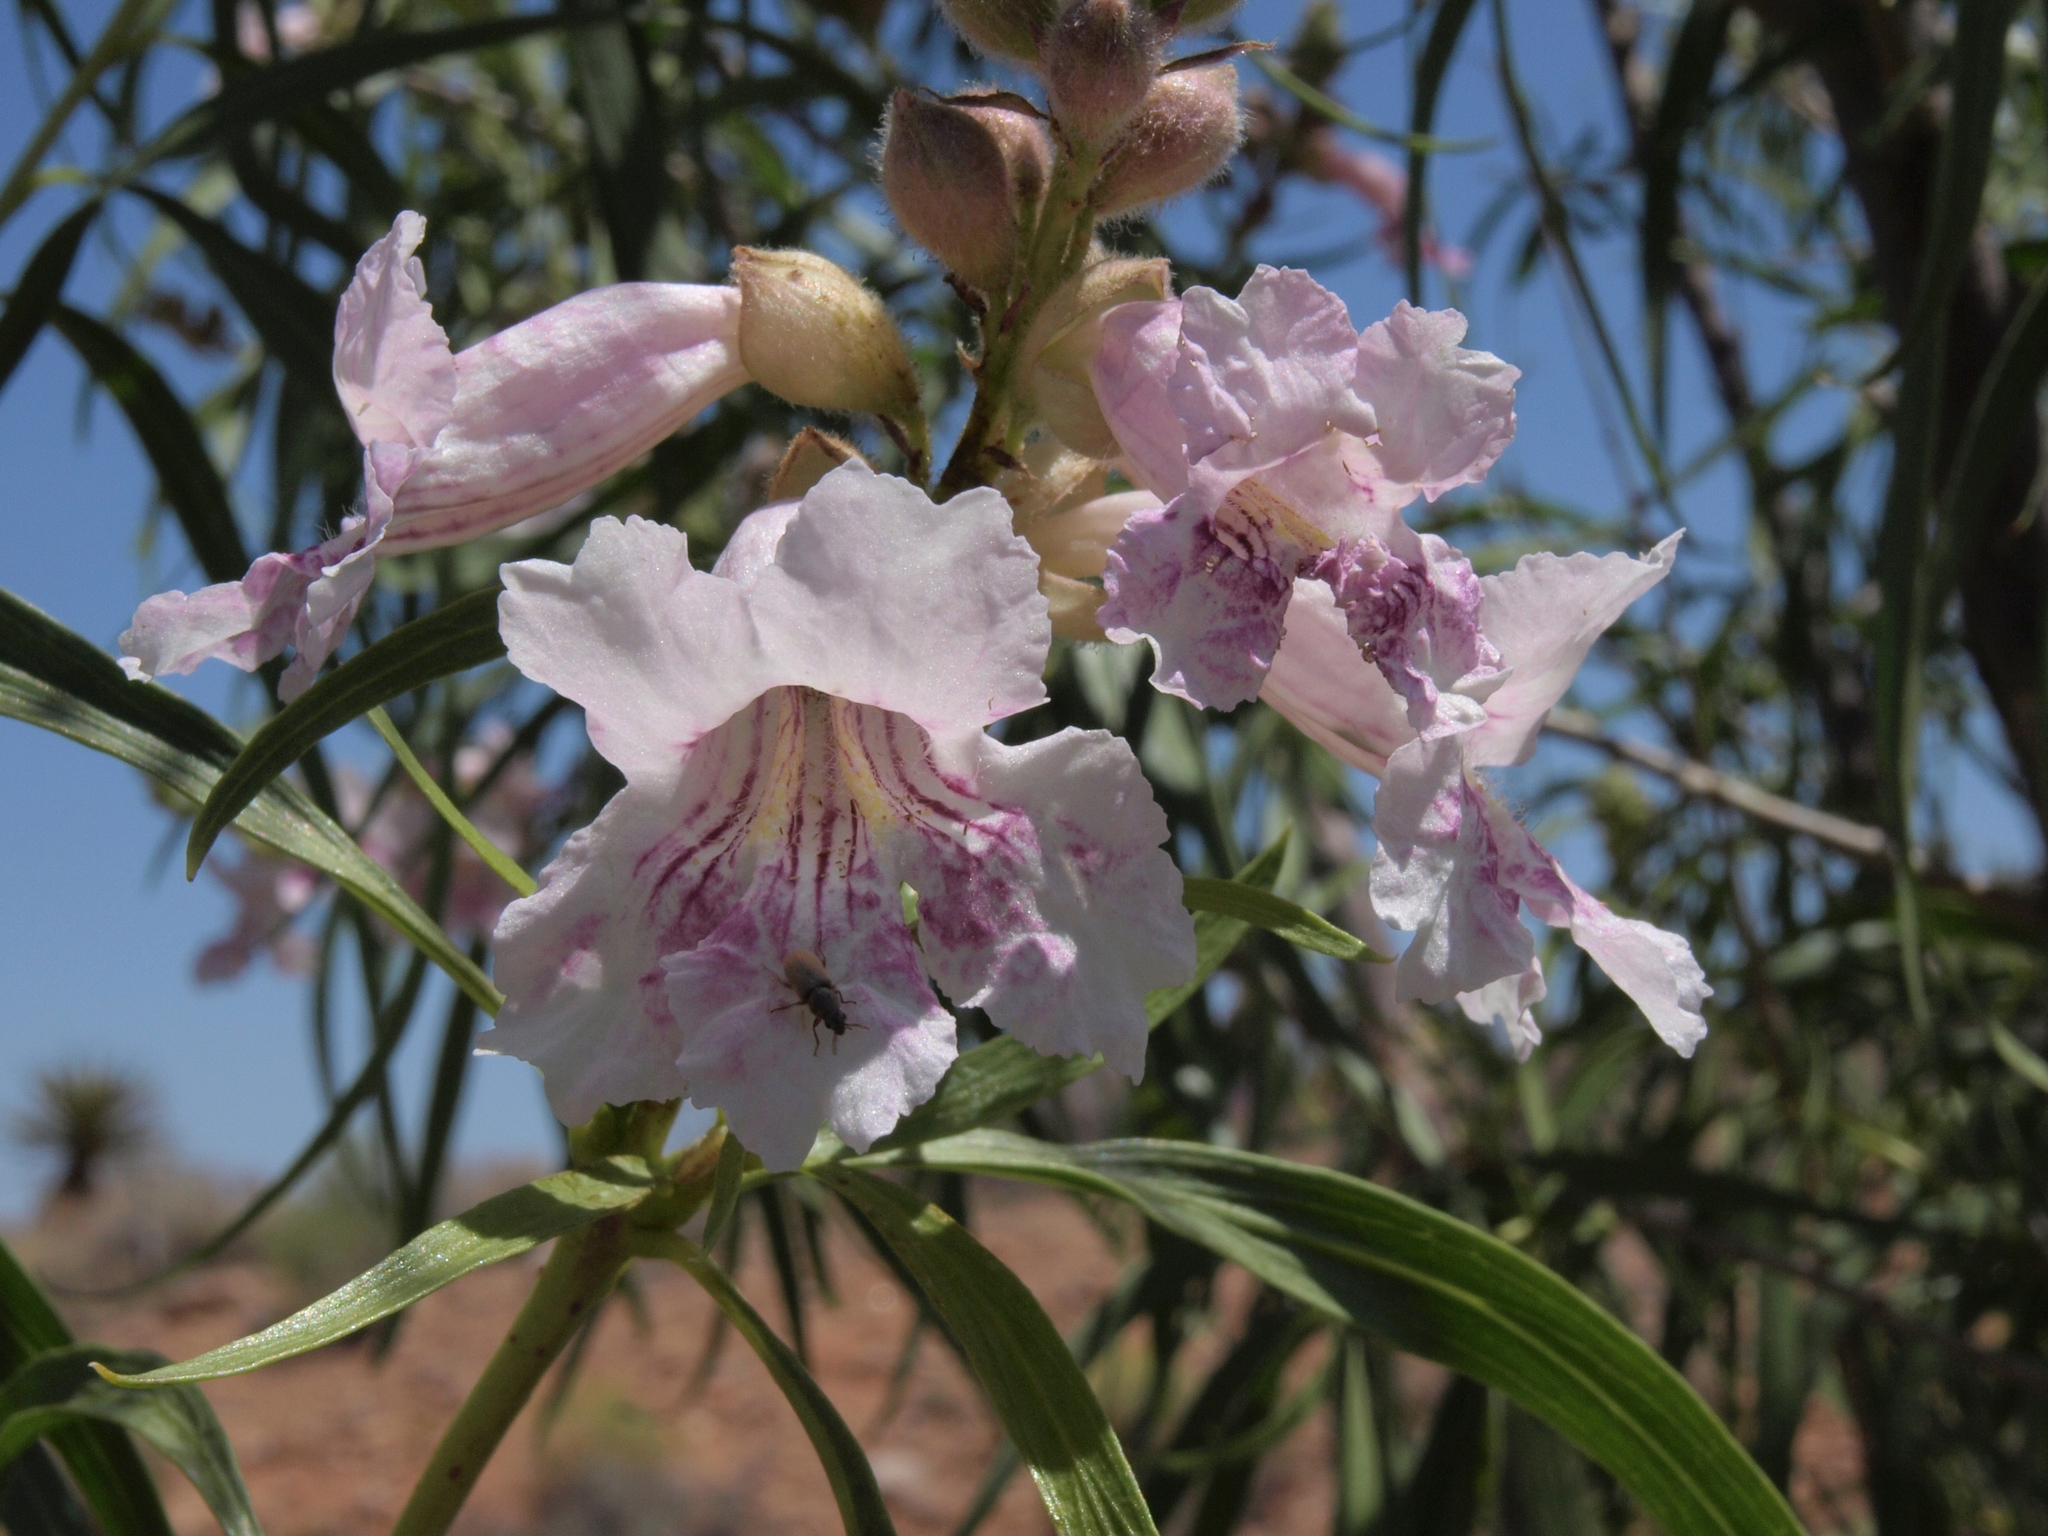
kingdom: Plantae
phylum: Tracheophyta
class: Magnoliopsida
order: Lamiales
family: Bignoniaceae
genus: Chilopsis
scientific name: Chilopsis linearis
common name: Desert-willow
